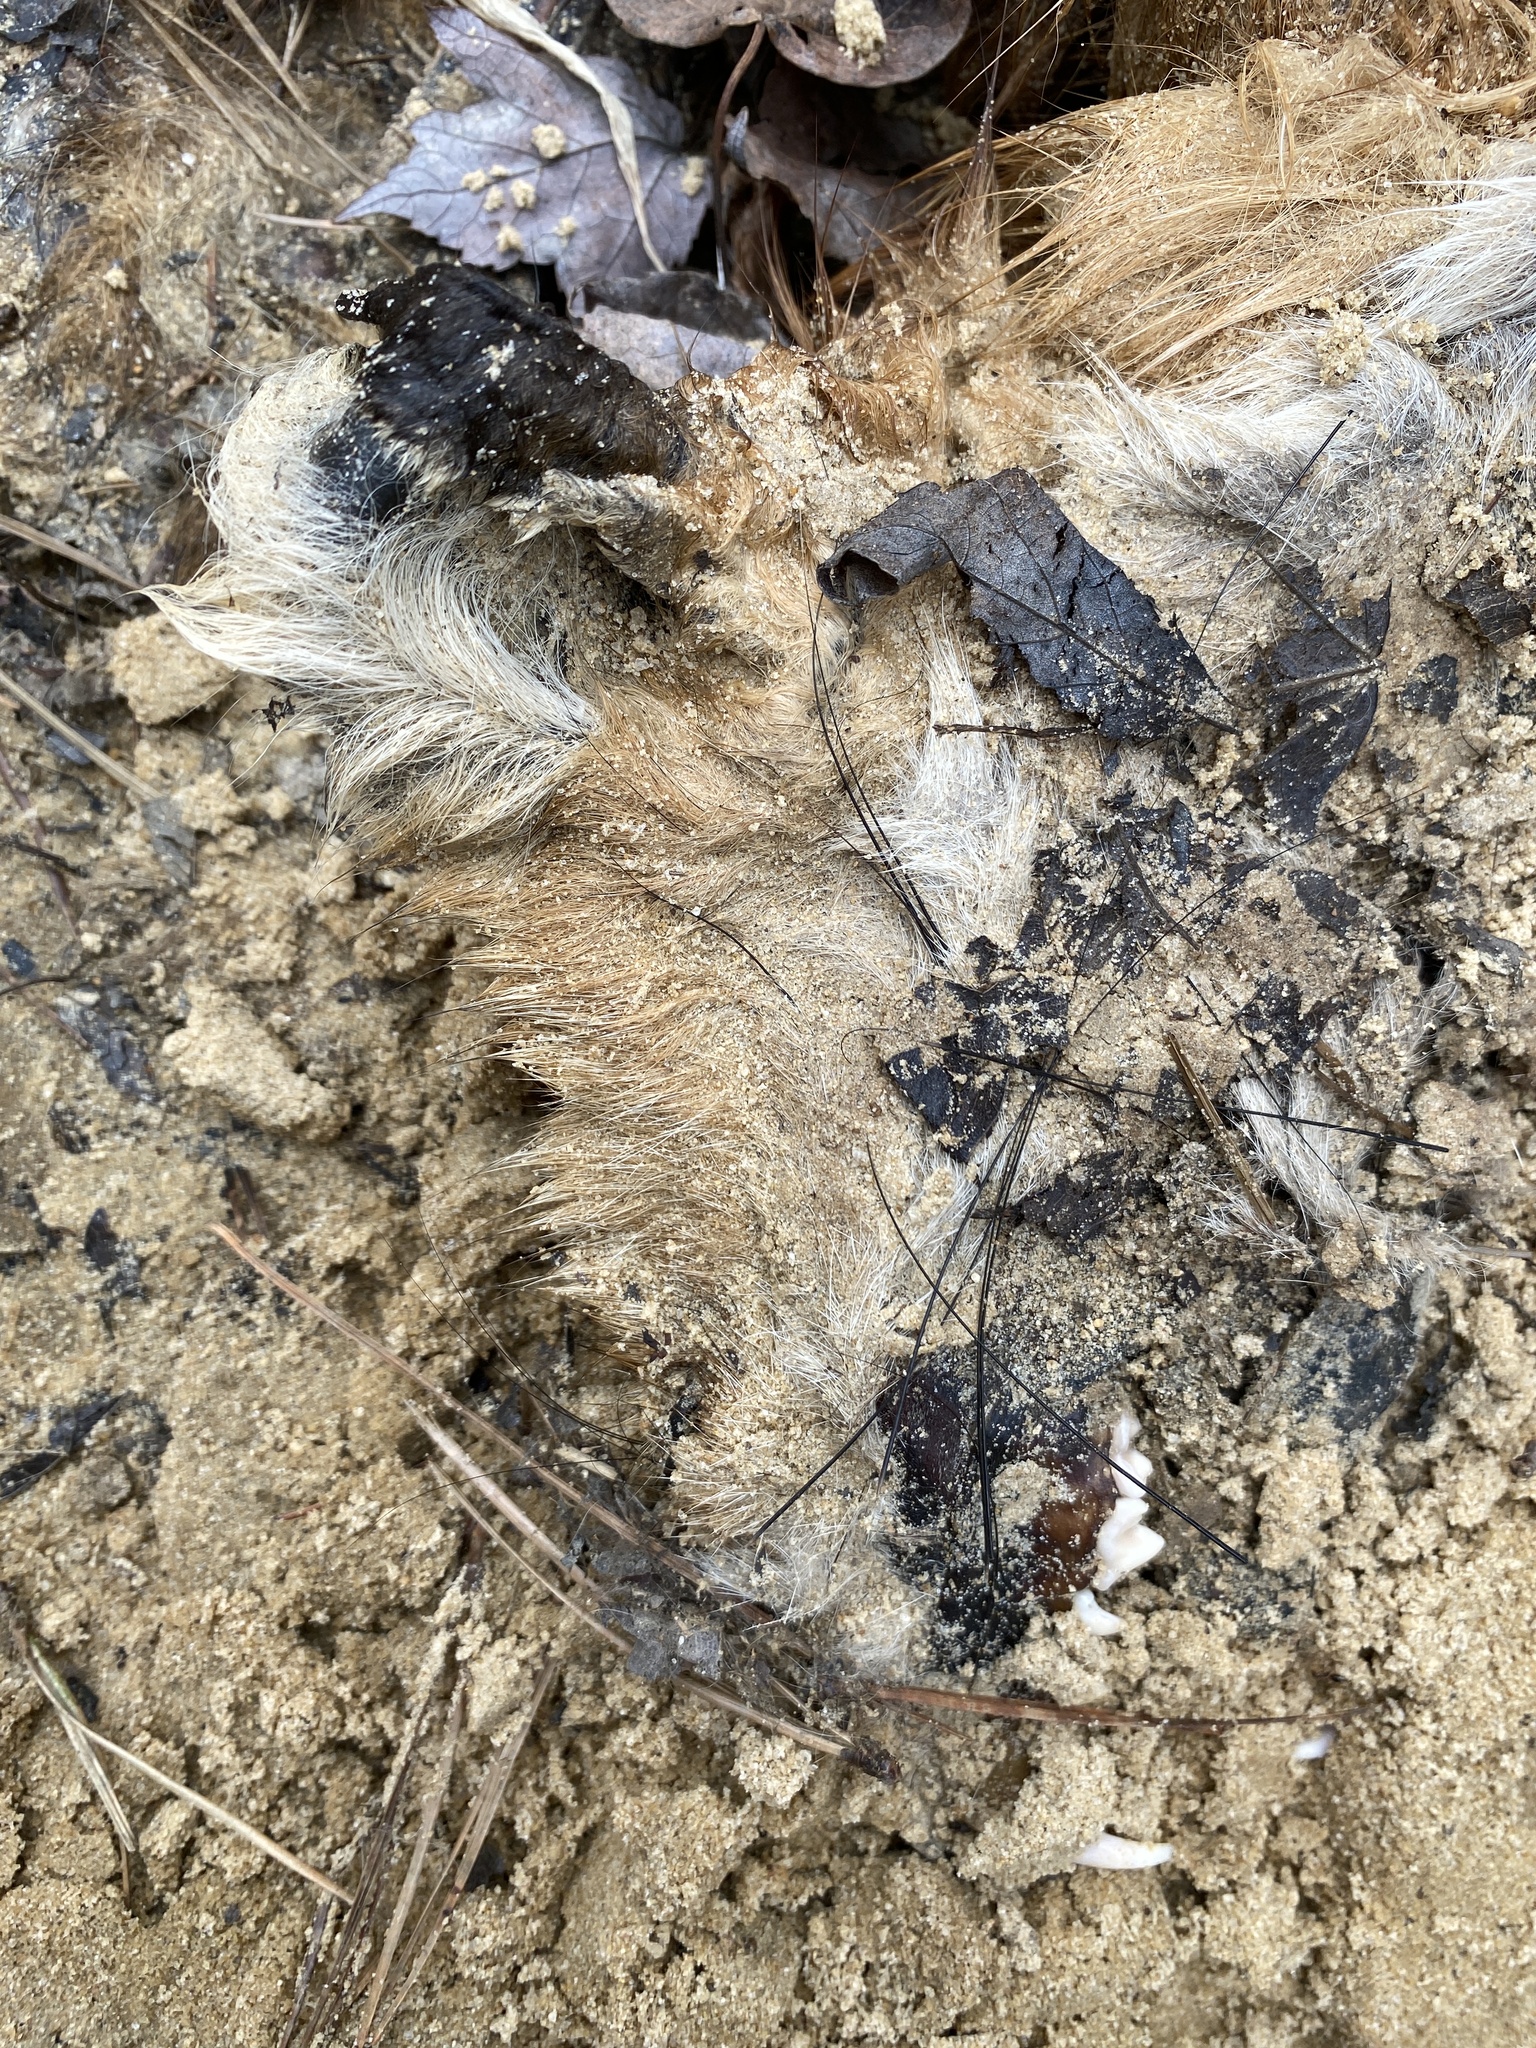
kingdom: Animalia
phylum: Chordata
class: Mammalia
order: Carnivora
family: Canidae
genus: Vulpes
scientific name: Vulpes vulpes
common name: Red fox
